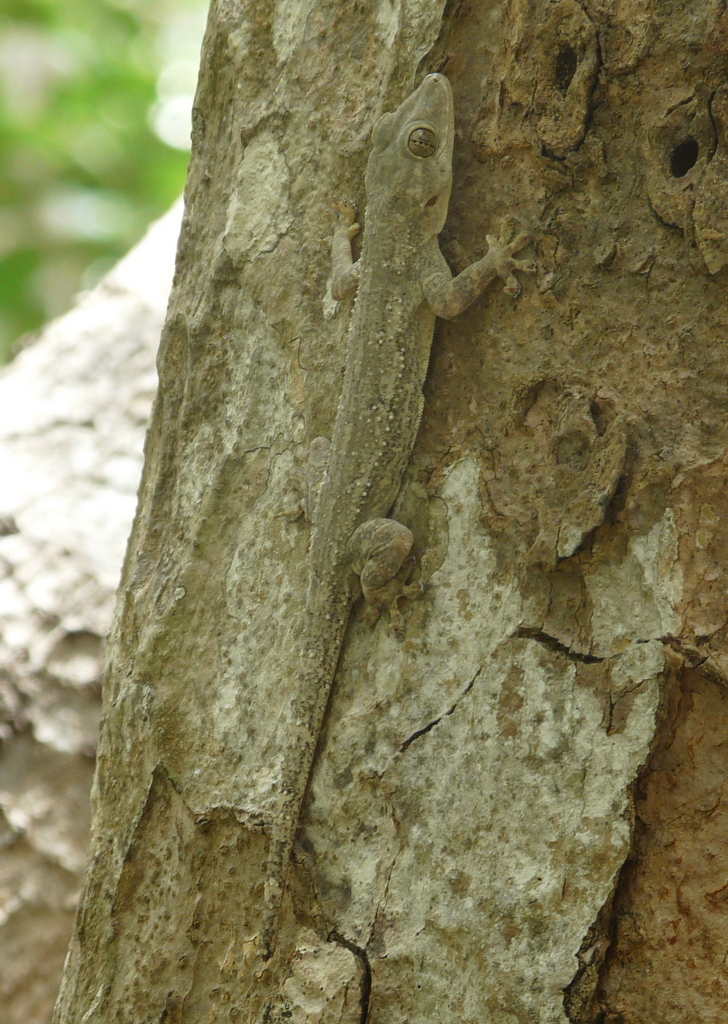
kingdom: Animalia
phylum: Chordata
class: Squamata
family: Gekkonidae
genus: Hemidactylus
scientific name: Hemidactylus platycephalus
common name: Baobab gecko
